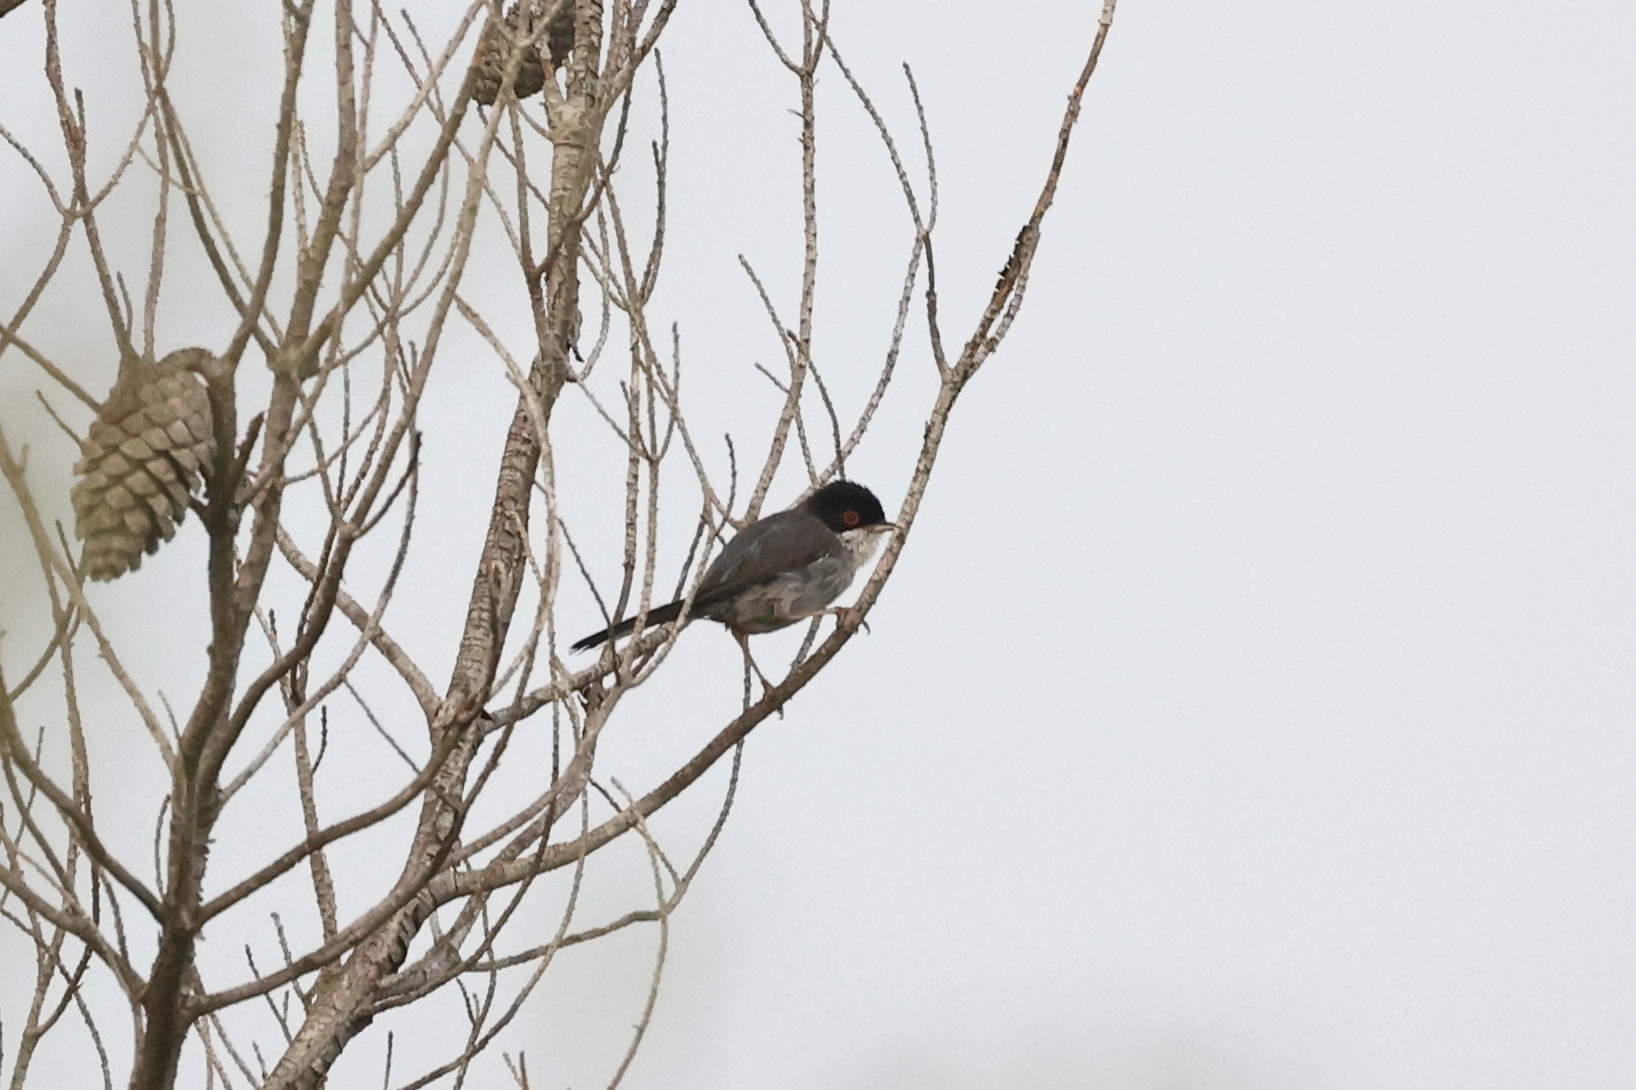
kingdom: Animalia
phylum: Chordata
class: Aves
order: Passeriformes
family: Sylviidae
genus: Curruca
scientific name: Curruca melanocephala
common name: Sardinian warbler
